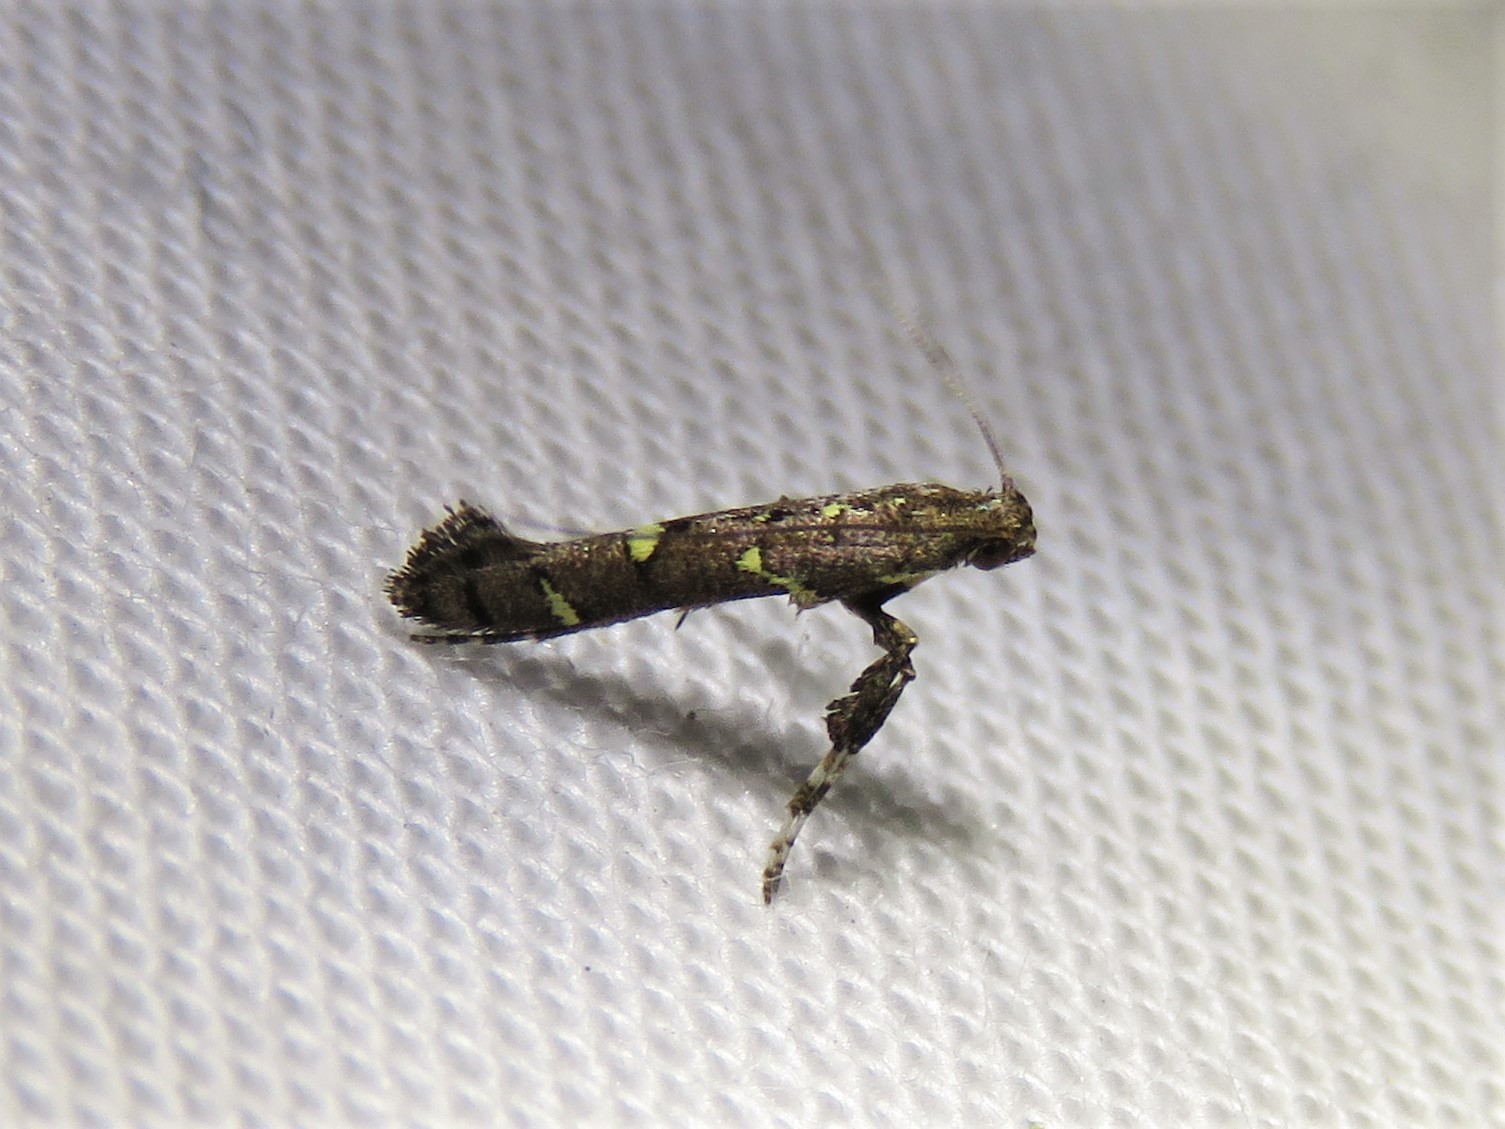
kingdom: Animalia
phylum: Arthropoda
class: Insecta
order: Lepidoptera
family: Gracillariidae
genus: Caloptilia
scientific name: Caloptilia triadicae
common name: Tallow leaf roller
